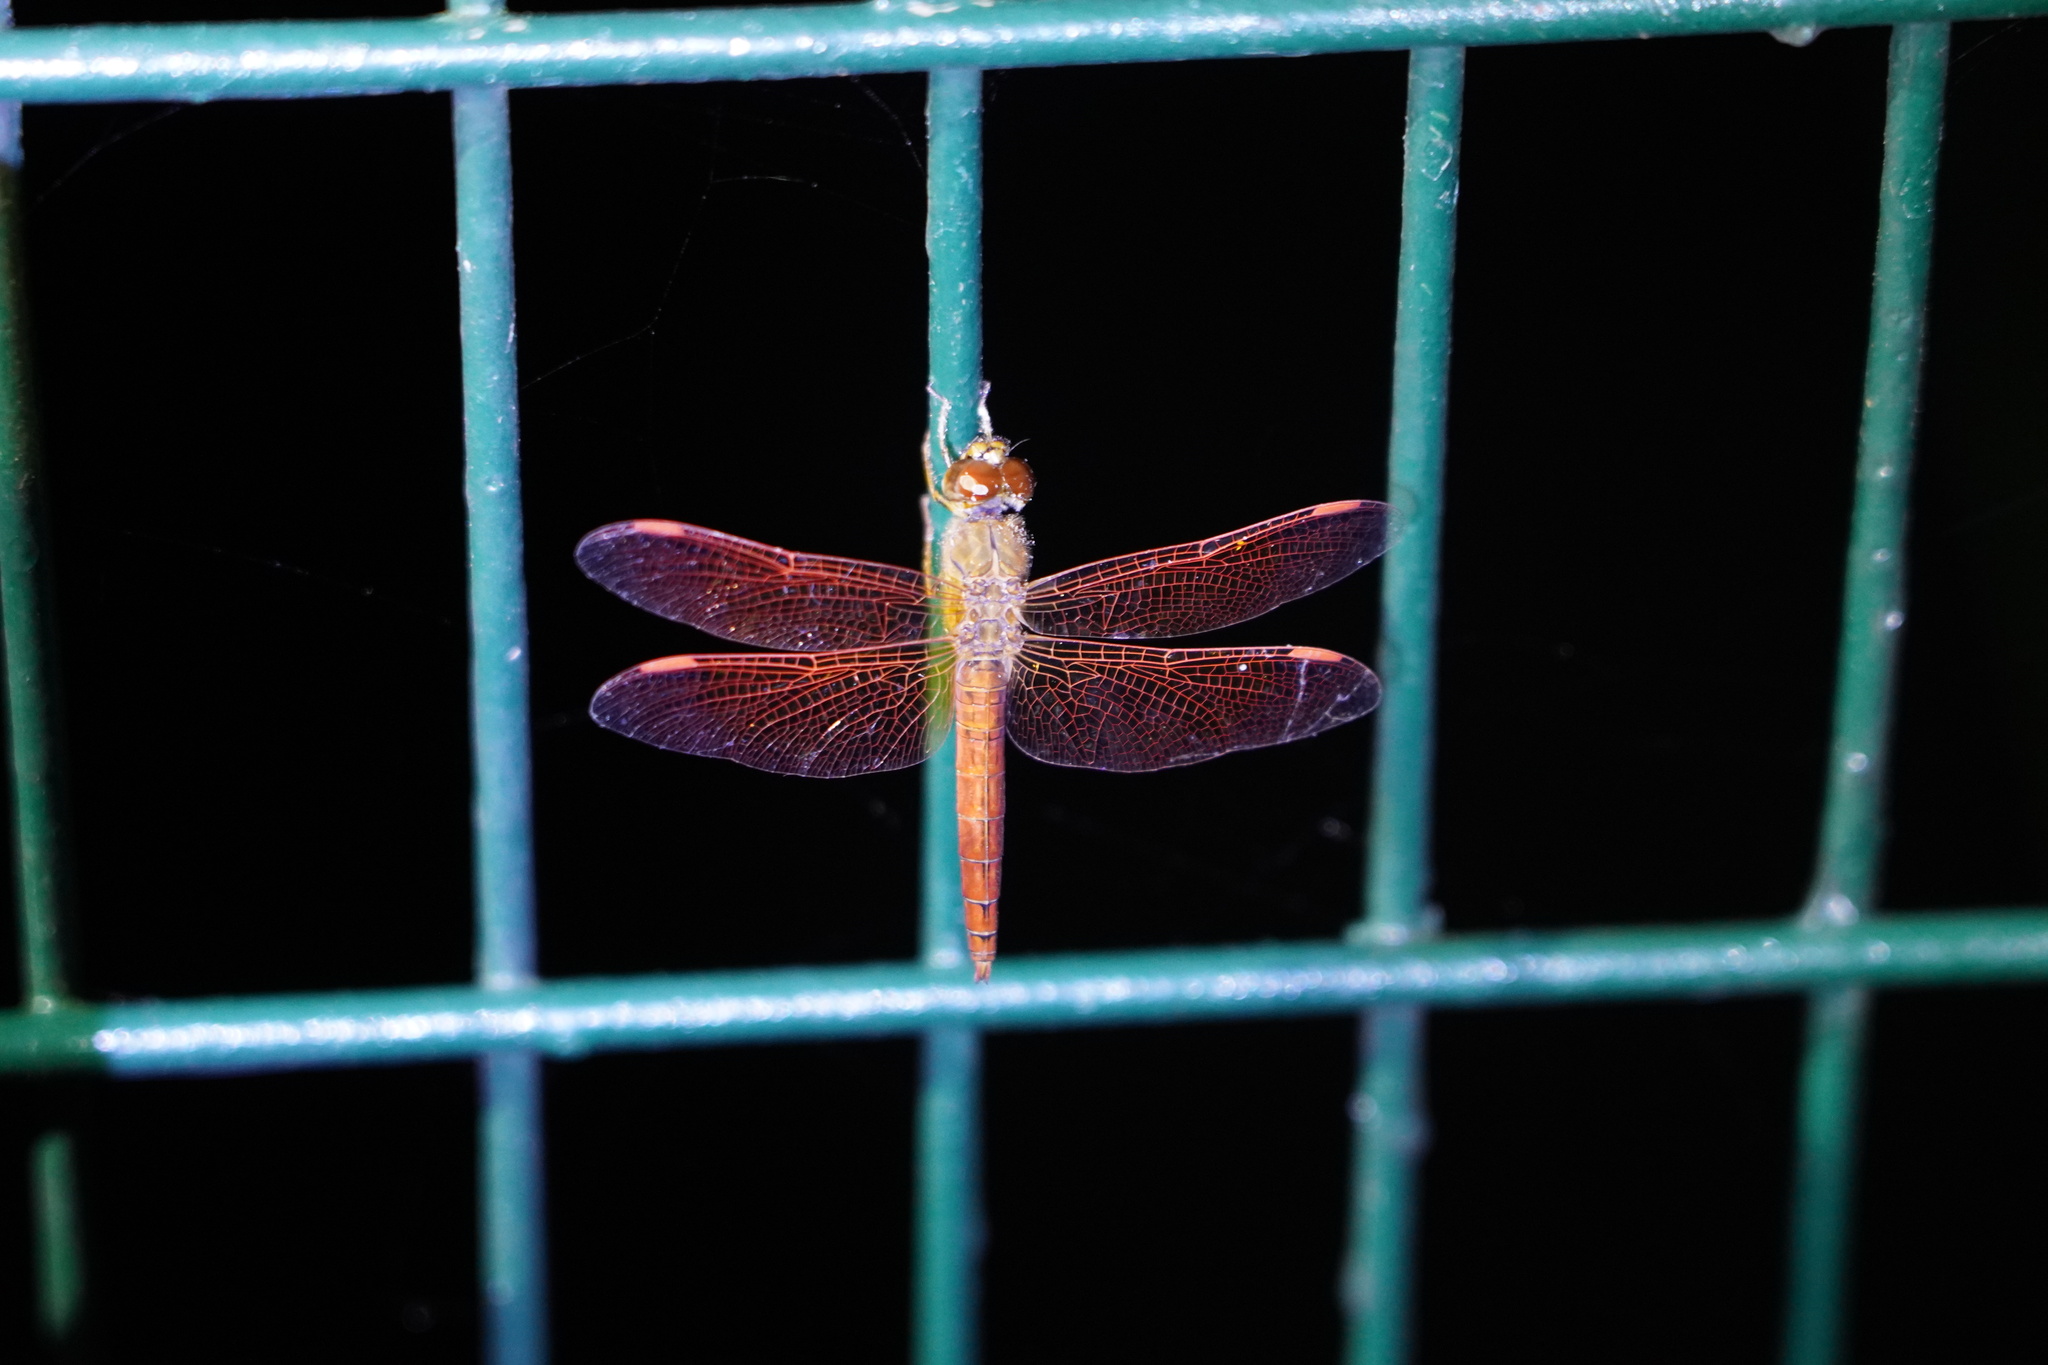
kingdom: Animalia
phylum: Arthropoda
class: Insecta
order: Odonata
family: Libellulidae
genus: Brachythemis
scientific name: Brachythemis contaminata
